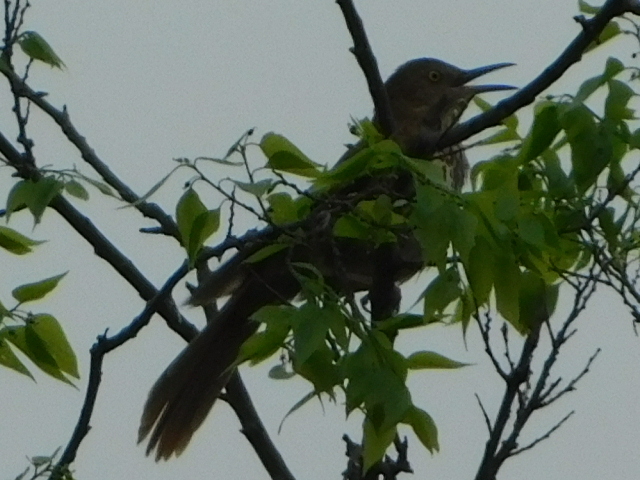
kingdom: Animalia
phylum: Chordata
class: Aves
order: Passeriformes
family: Mimidae
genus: Toxostoma
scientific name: Toxostoma rufum
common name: Brown thrasher
